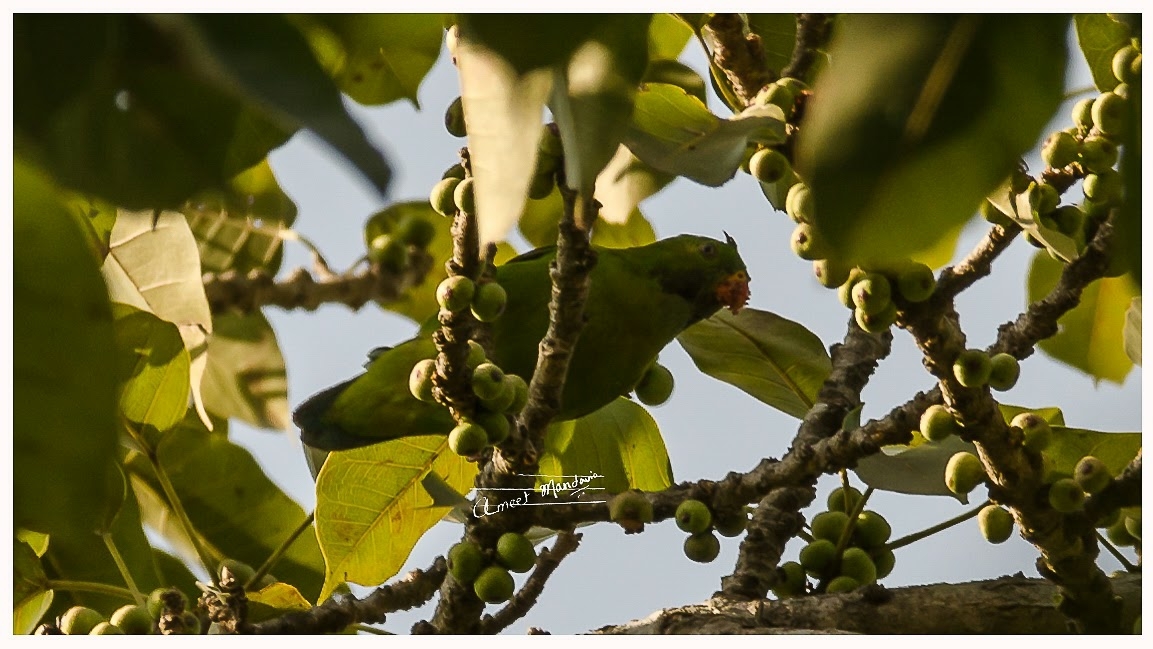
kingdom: Animalia
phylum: Chordata
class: Aves
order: Psittaciformes
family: Psittacidae
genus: Loriculus
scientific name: Loriculus vernalis
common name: Vernal hanging parrot
